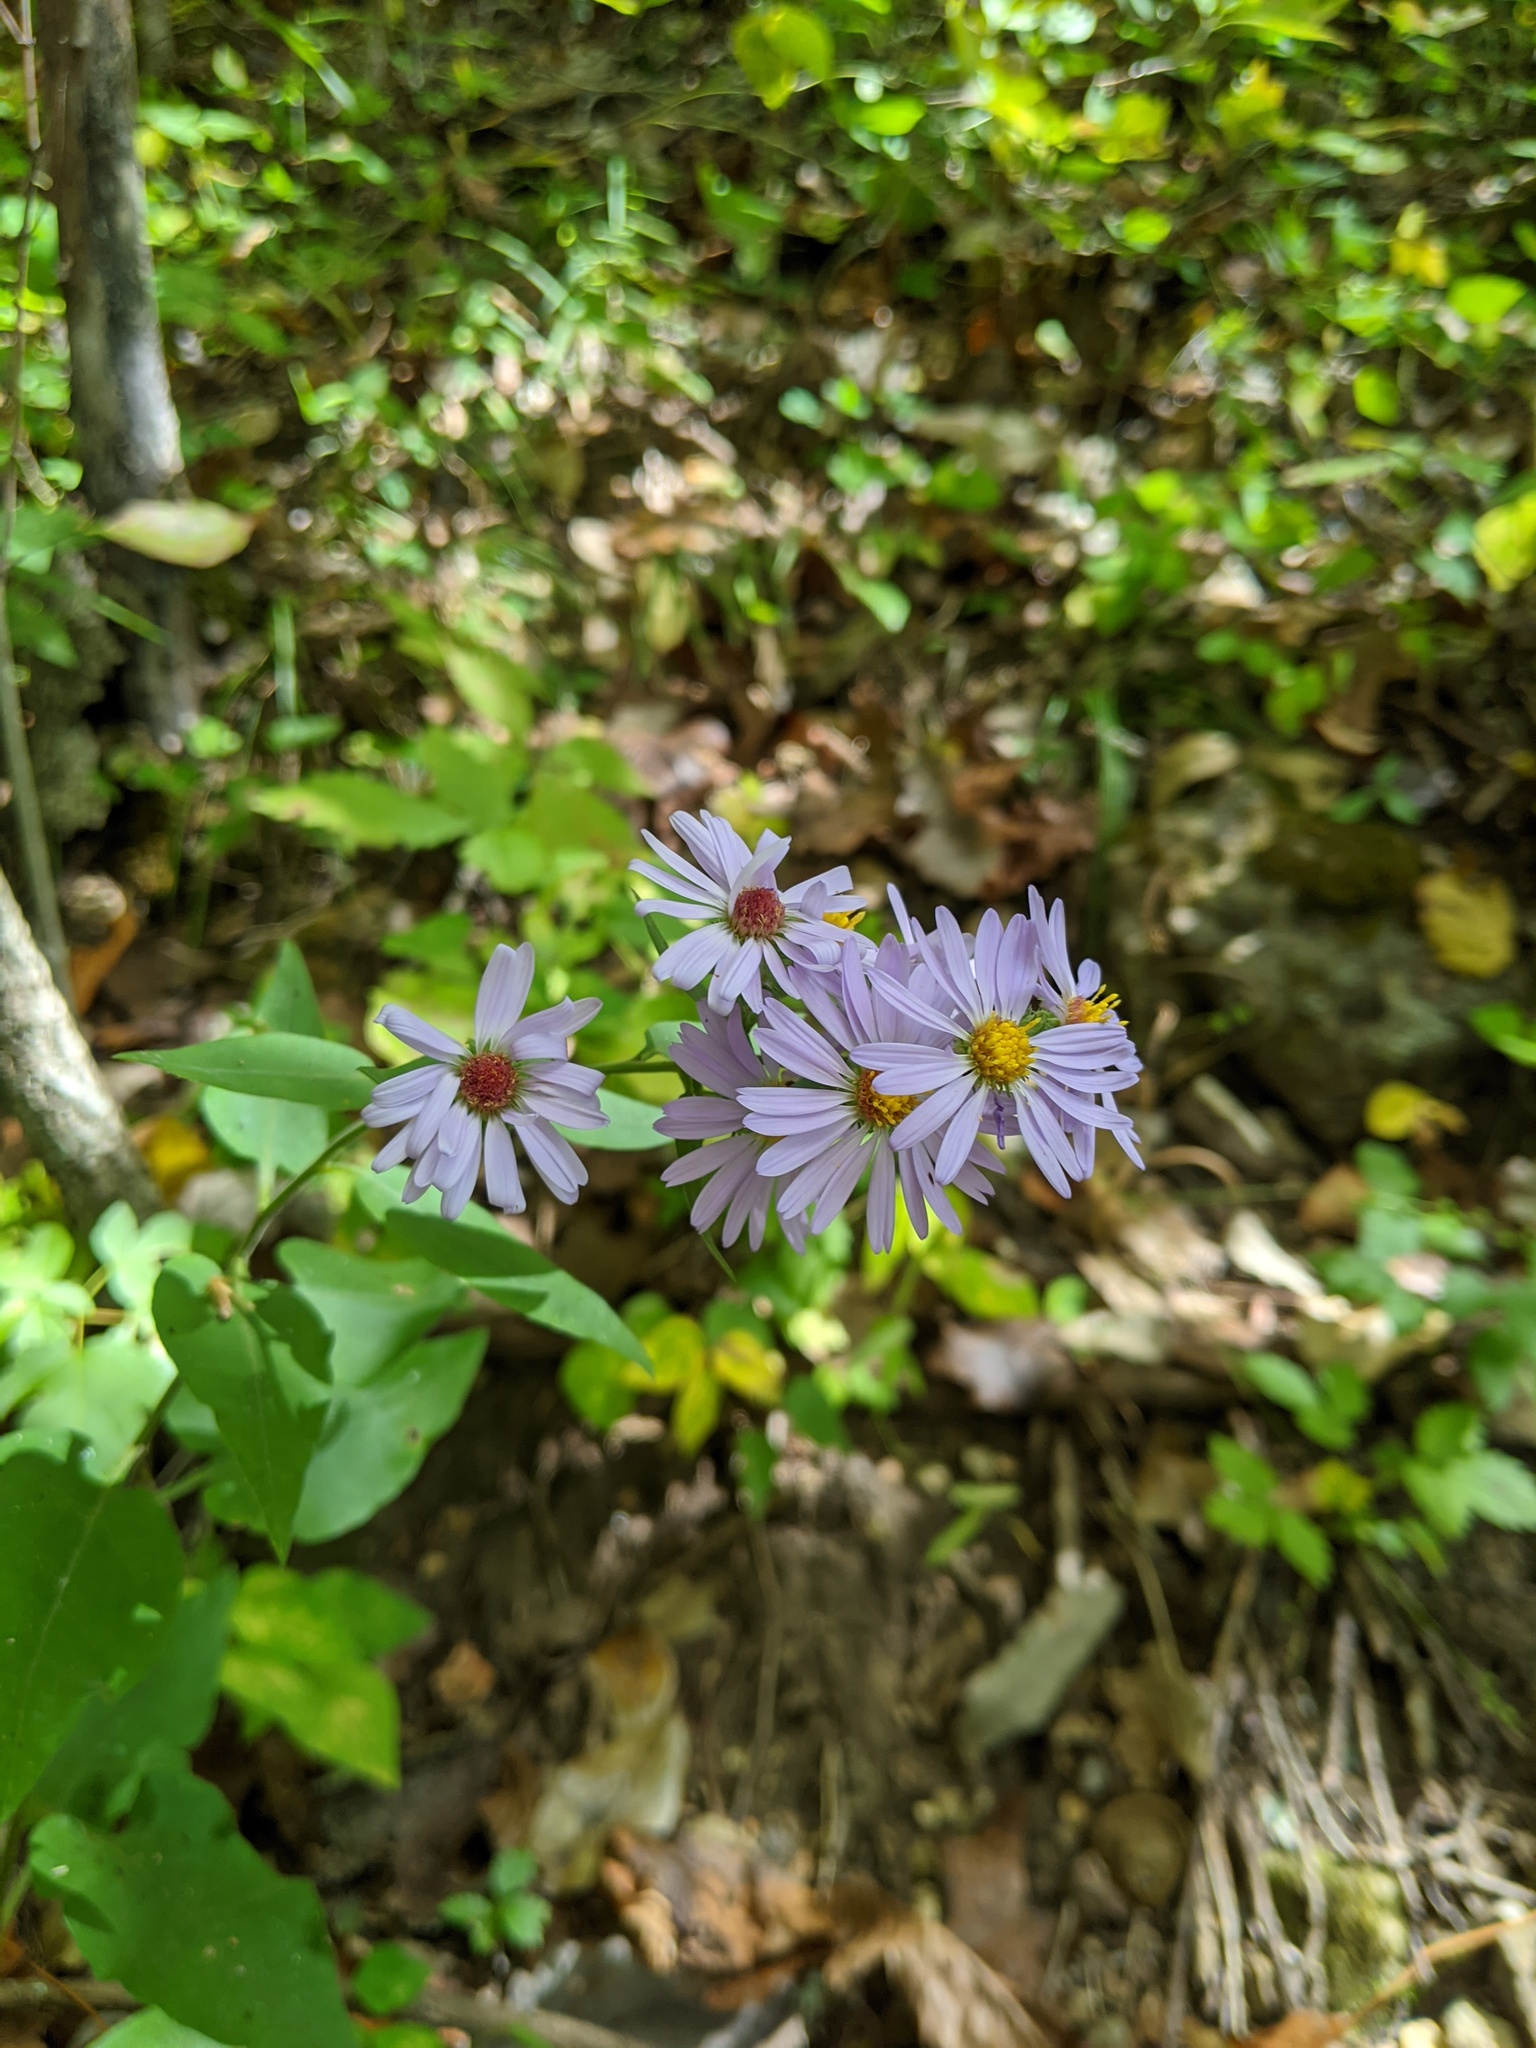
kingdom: Plantae
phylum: Tracheophyta
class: Magnoliopsida
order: Asterales
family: Asteraceae
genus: Symphyotrichum
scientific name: Symphyotrichum anomalum
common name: Many-ray aster
